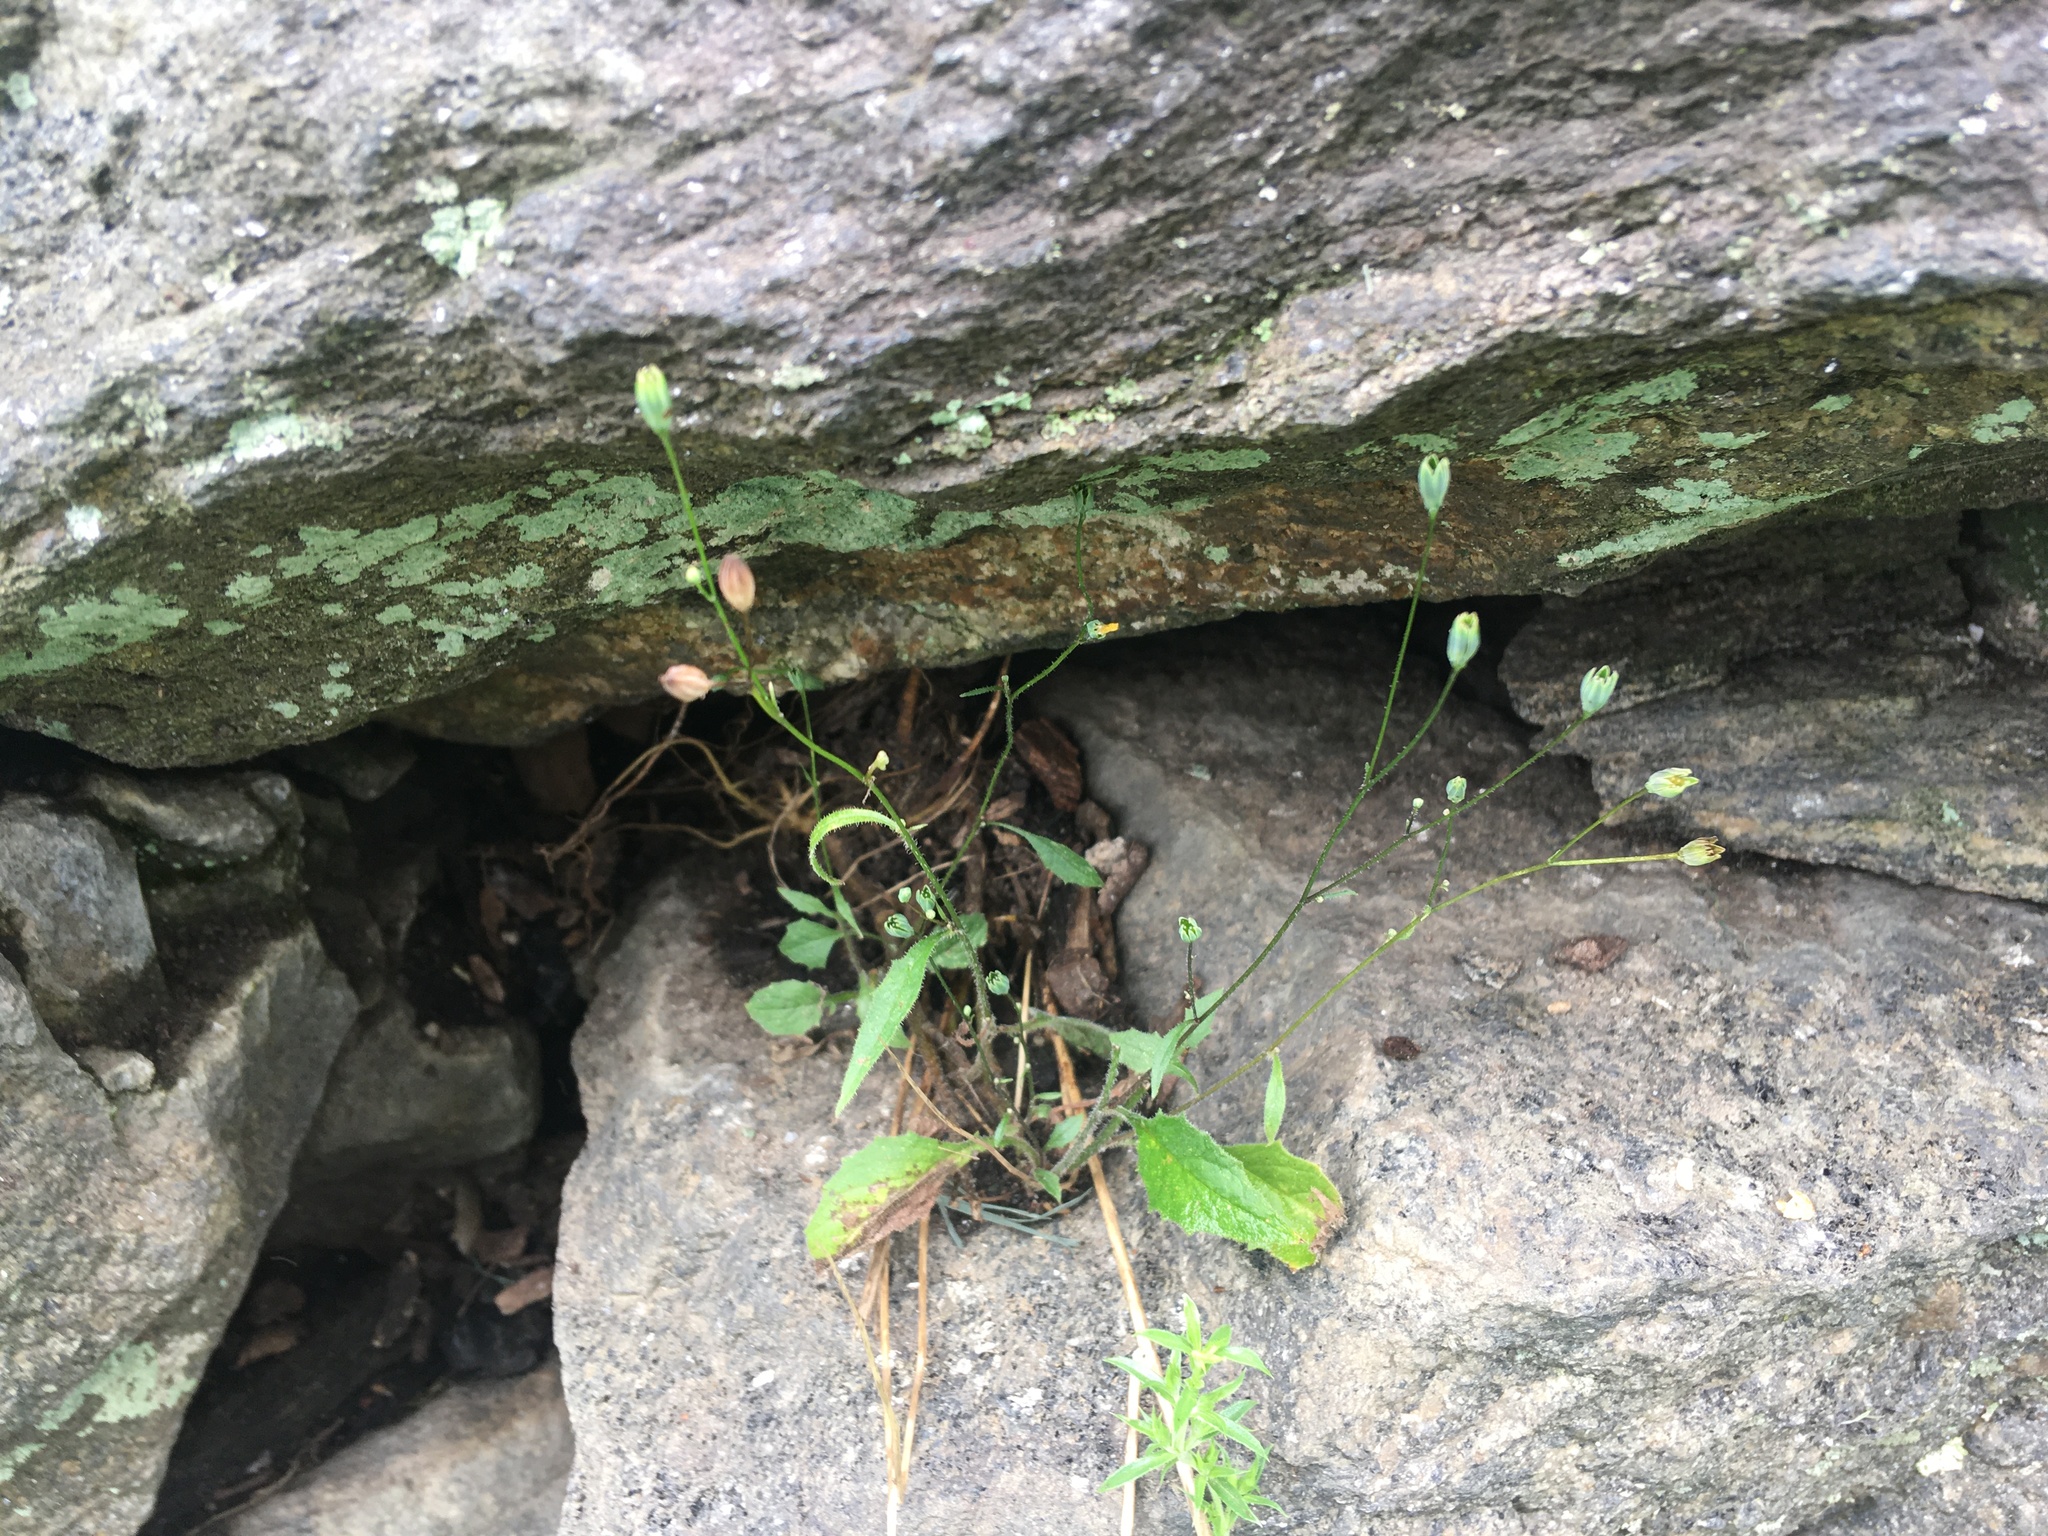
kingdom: Plantae
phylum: Tracheophyta
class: Magnoliopsida
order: Asterales
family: Asteraceae
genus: Lapsana
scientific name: Lapsana communis
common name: Nipplewort
